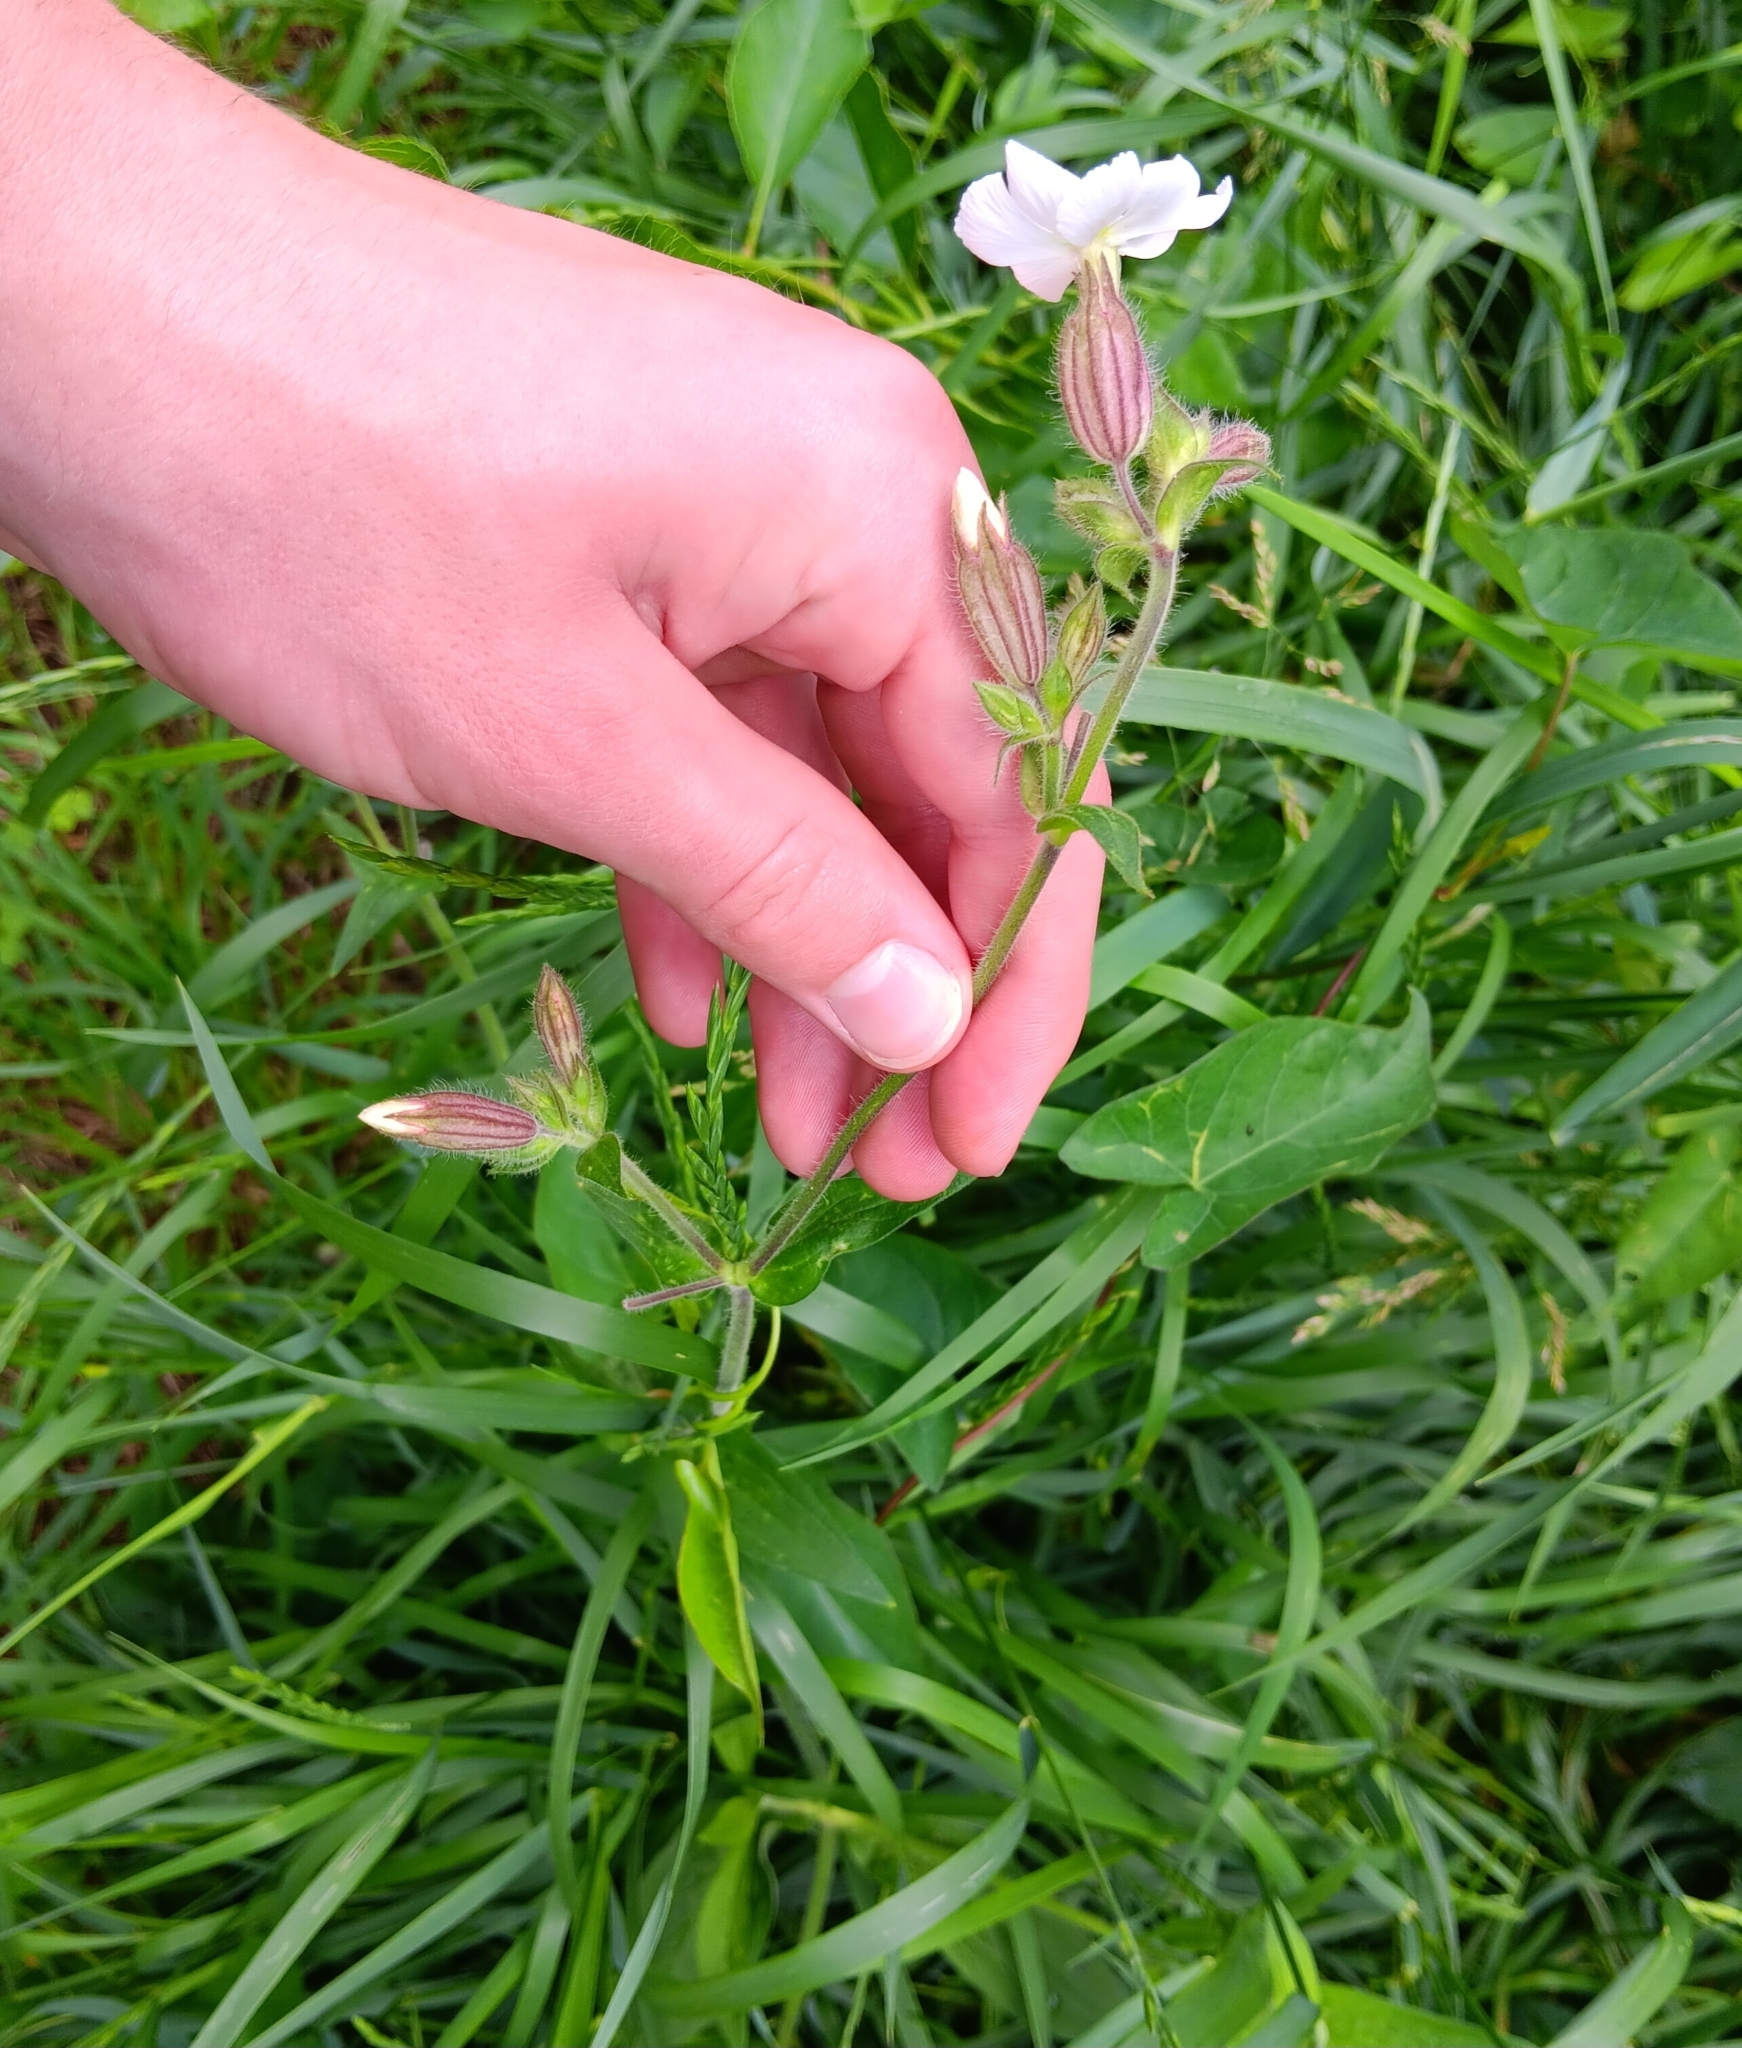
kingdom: Plantae
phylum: Tracheophyta
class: Magnoliopsida
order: Caryophyllales
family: Caryophyllaceae
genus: Silene
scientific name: Silene latifolia
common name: White campion
